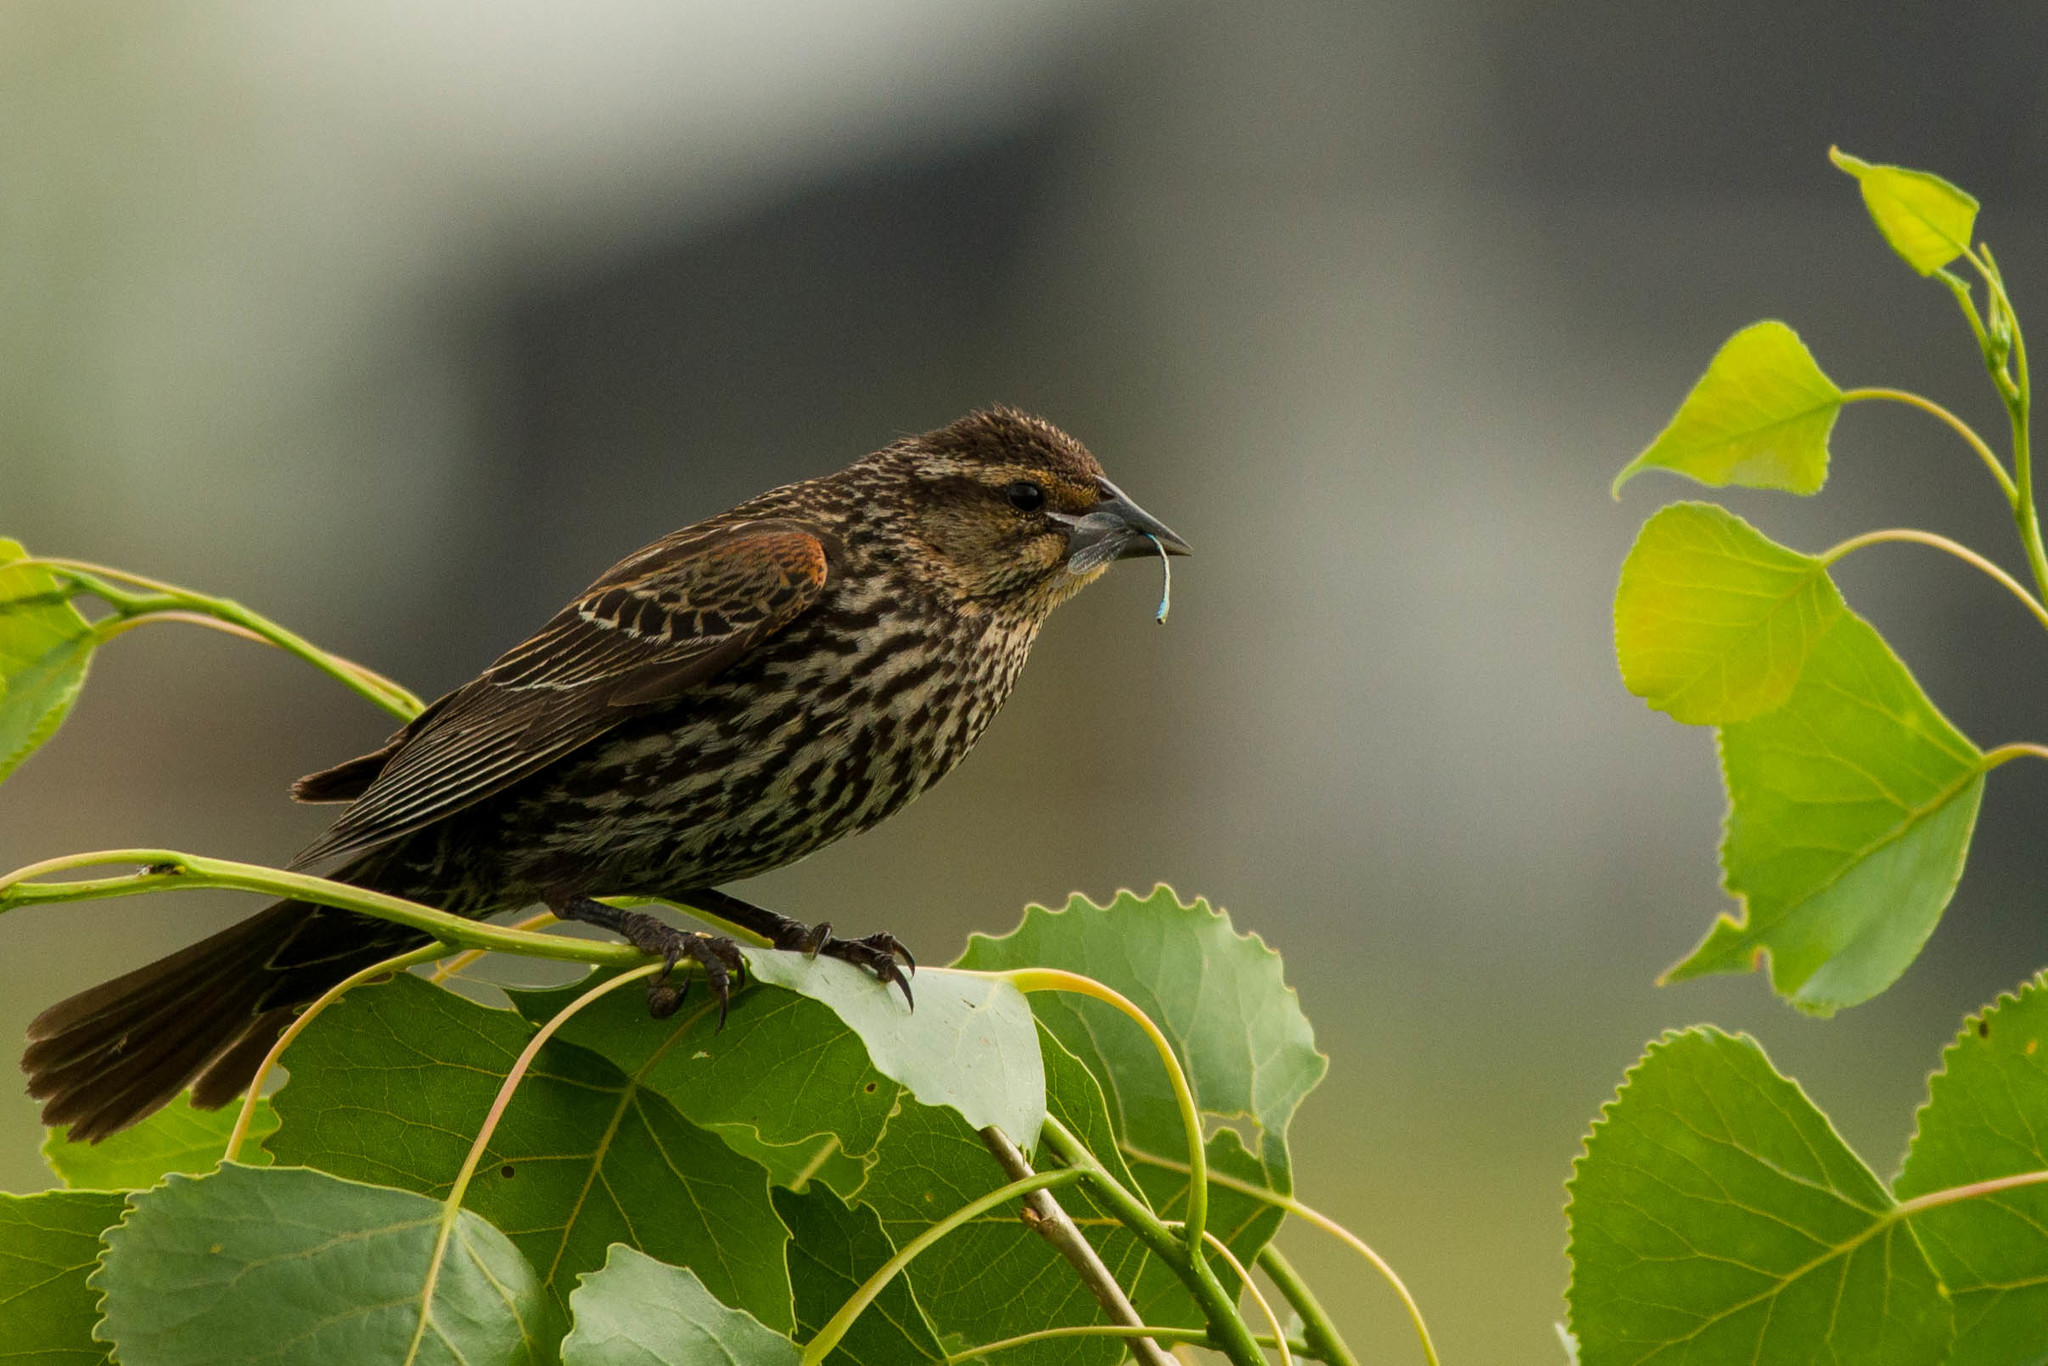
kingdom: Animalia
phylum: Chordata
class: Aves
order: Passeriformes
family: Icteridae
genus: Agelaius
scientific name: Agelaius phoeniceus
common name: Red-winged blackbird
